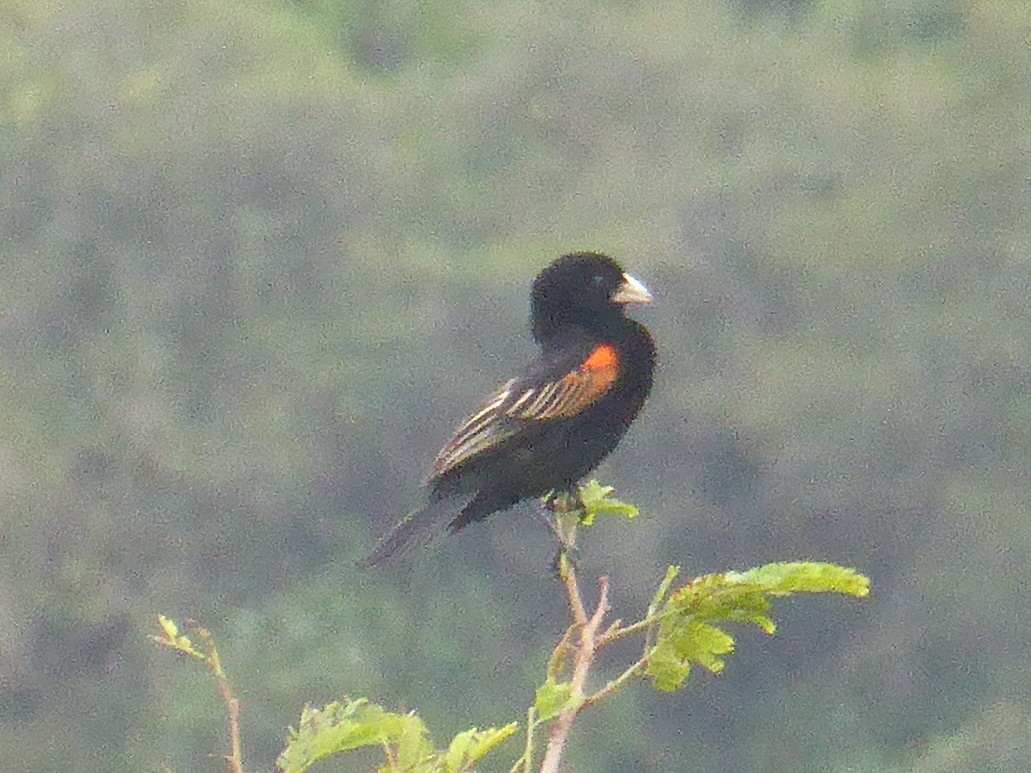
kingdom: Animalia
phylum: Chordata
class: Aves
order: Passeriformes
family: Ploceidae
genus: Euplectes
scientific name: Euplectes axillaris
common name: Fan-tailed widowbird
